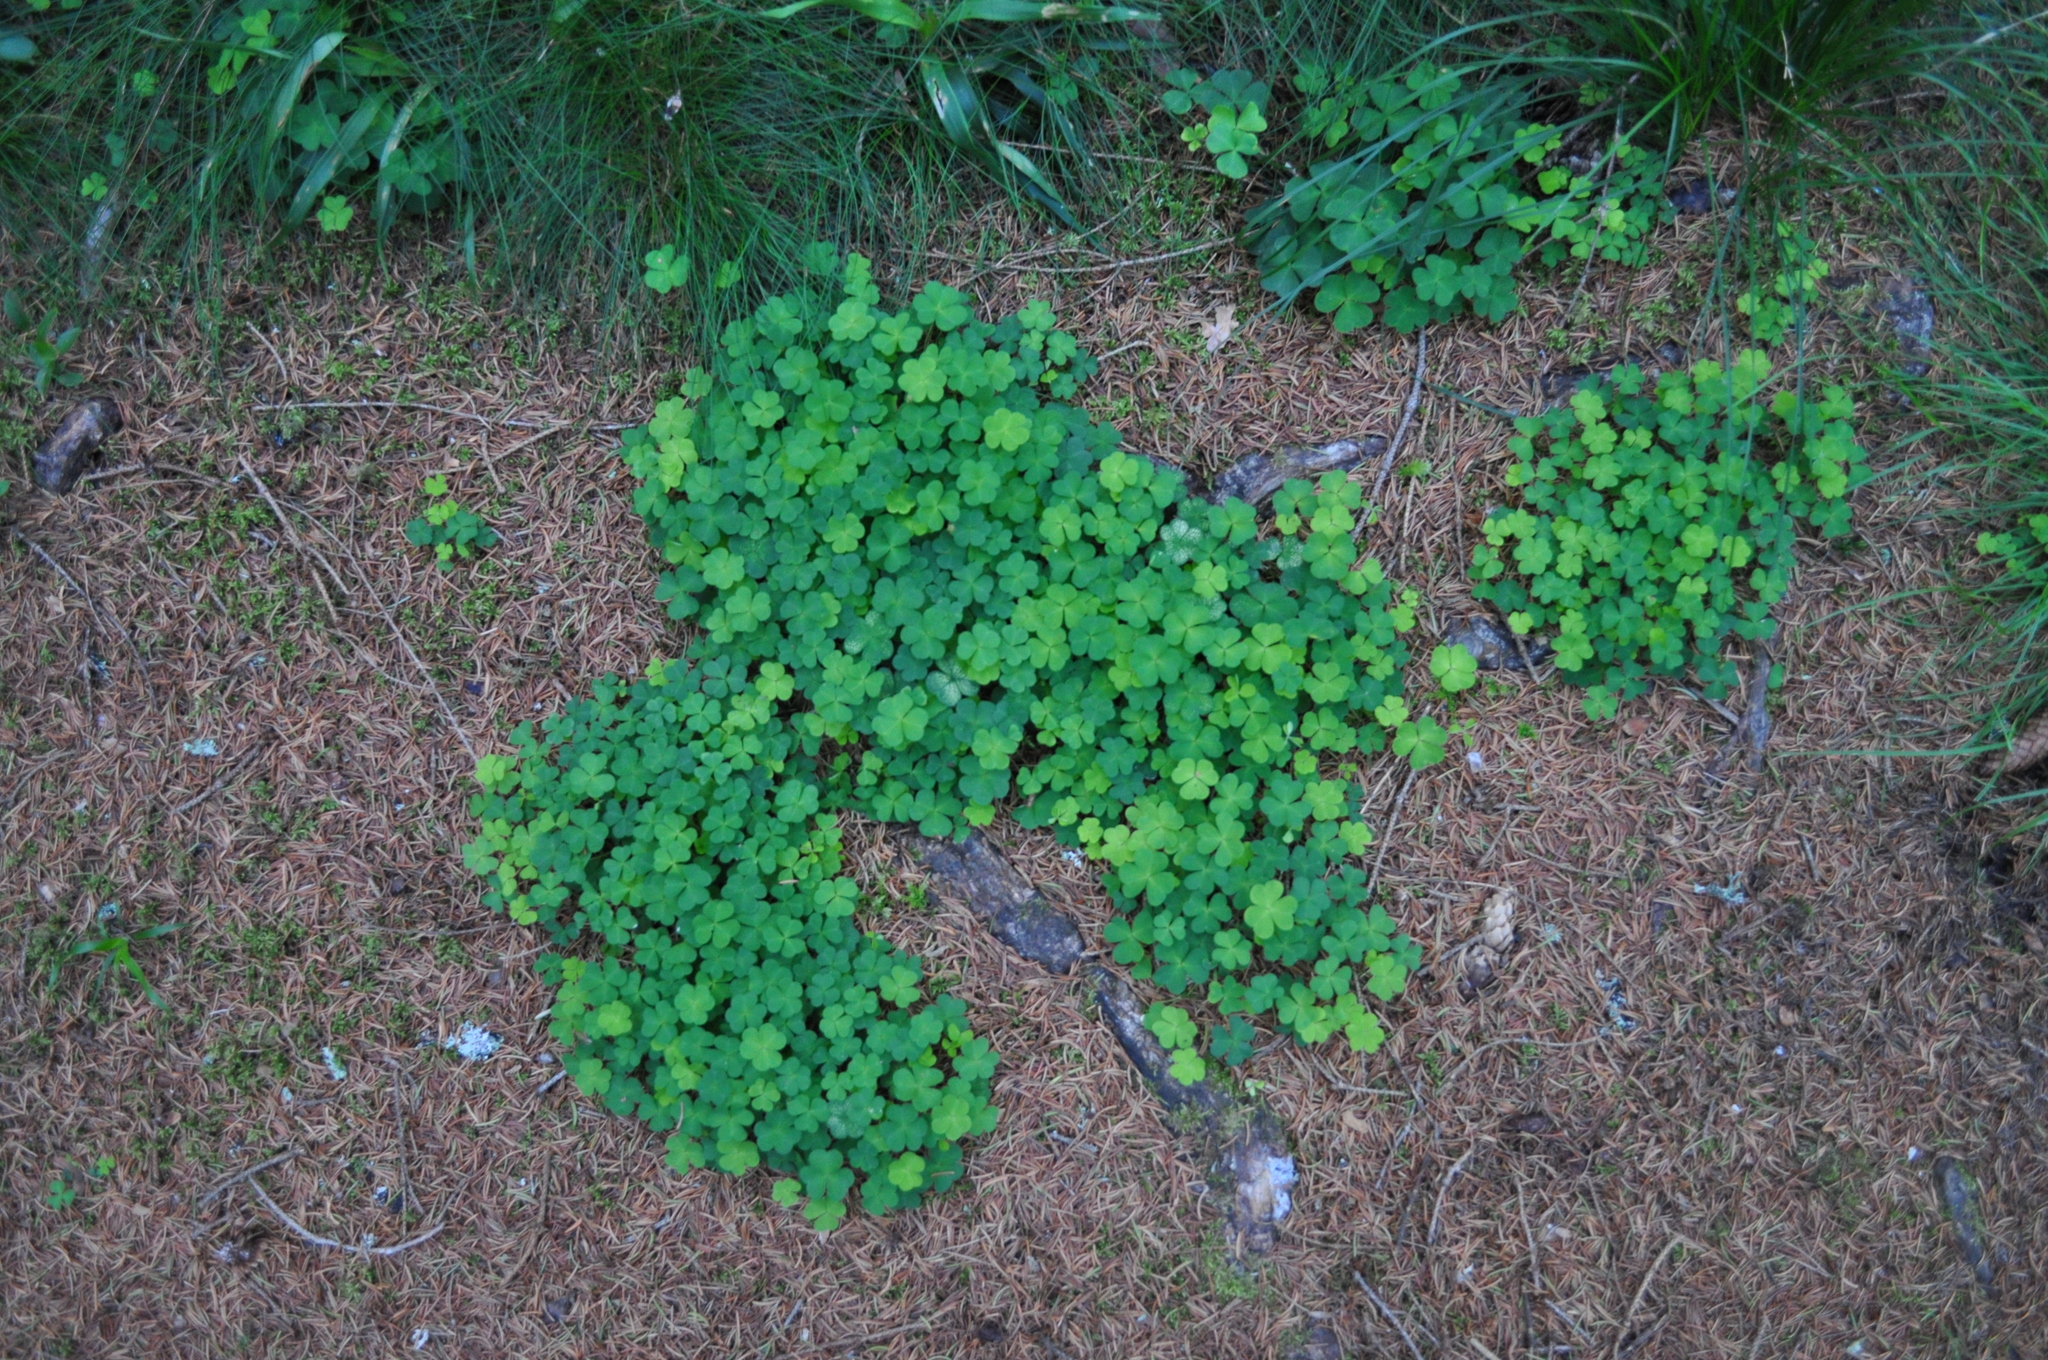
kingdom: Plantae
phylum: Tracheophyta
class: Magnoliopsida
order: Oxalidales
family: Oxalidaceae
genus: Oxalis
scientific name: Oxalis acetosella
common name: Wood-sorrel
